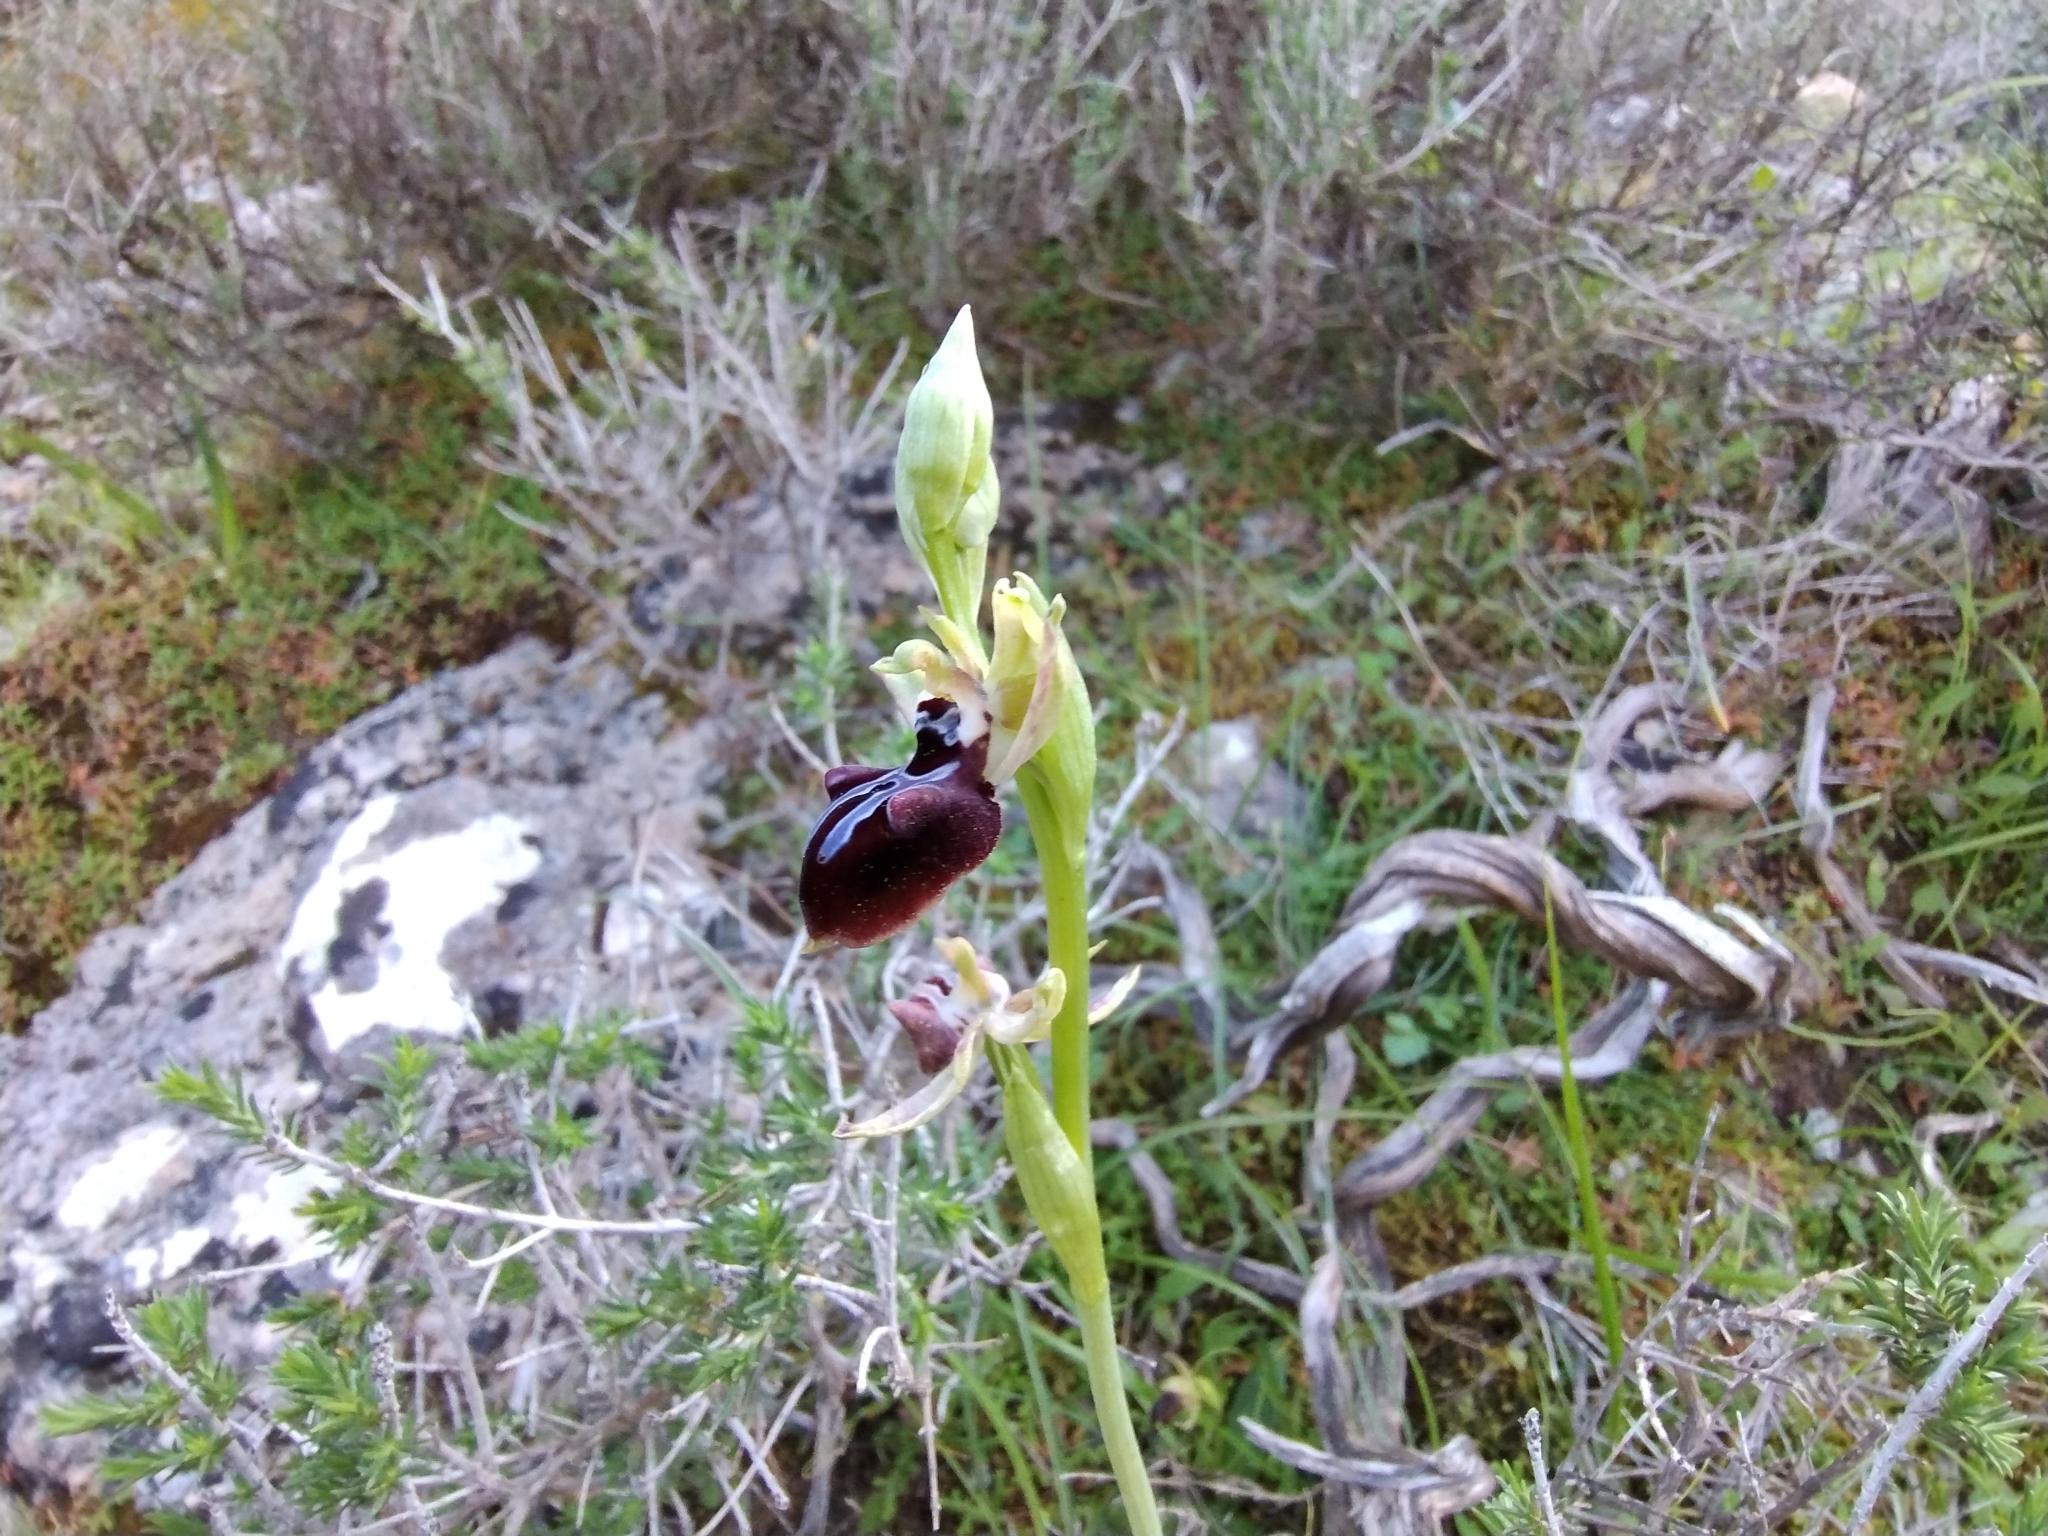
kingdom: Plantae
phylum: Tracheophyta
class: Liliopsida
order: Asparagales
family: Orchidaceae
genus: Ophrys
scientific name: Ophrys sphegodes
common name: Early spider-orchid
